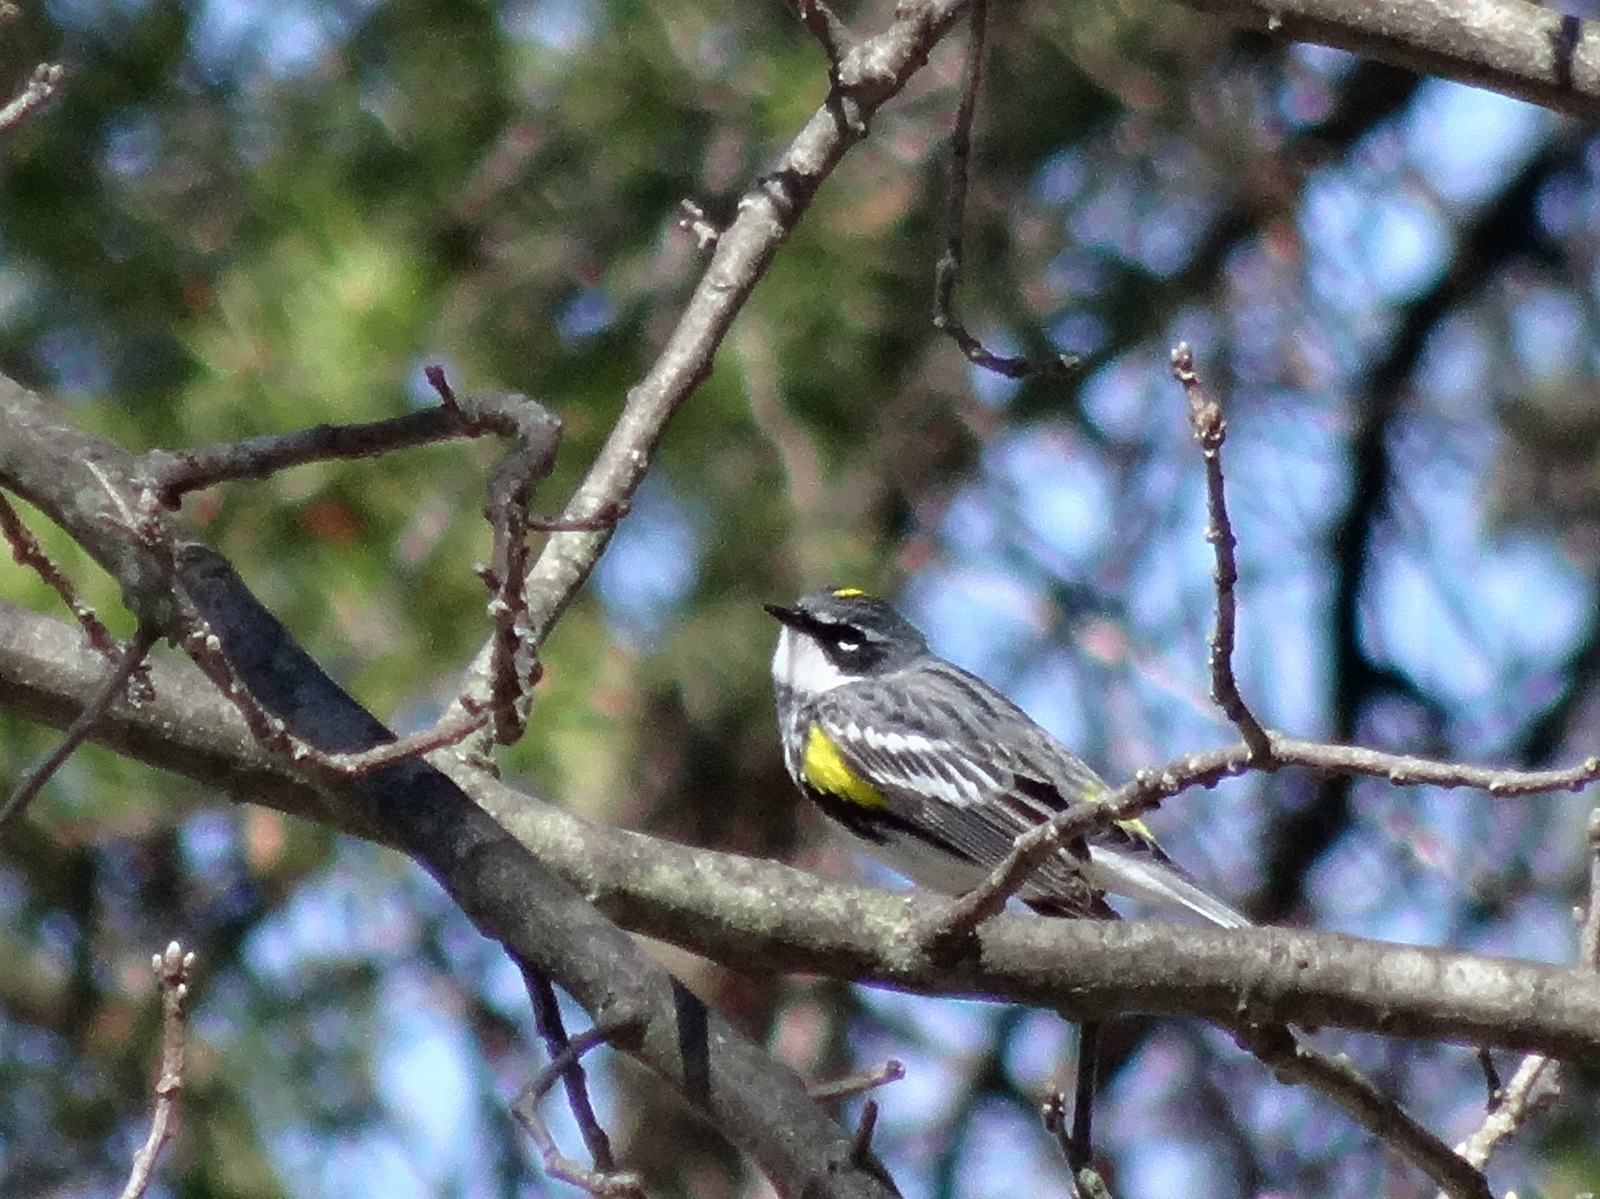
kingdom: Animalia
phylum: Chordata
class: Aves
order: Passeriformes
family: Parulidae
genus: Setophaga
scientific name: Setophaga coronata
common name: Myrtle warbler
